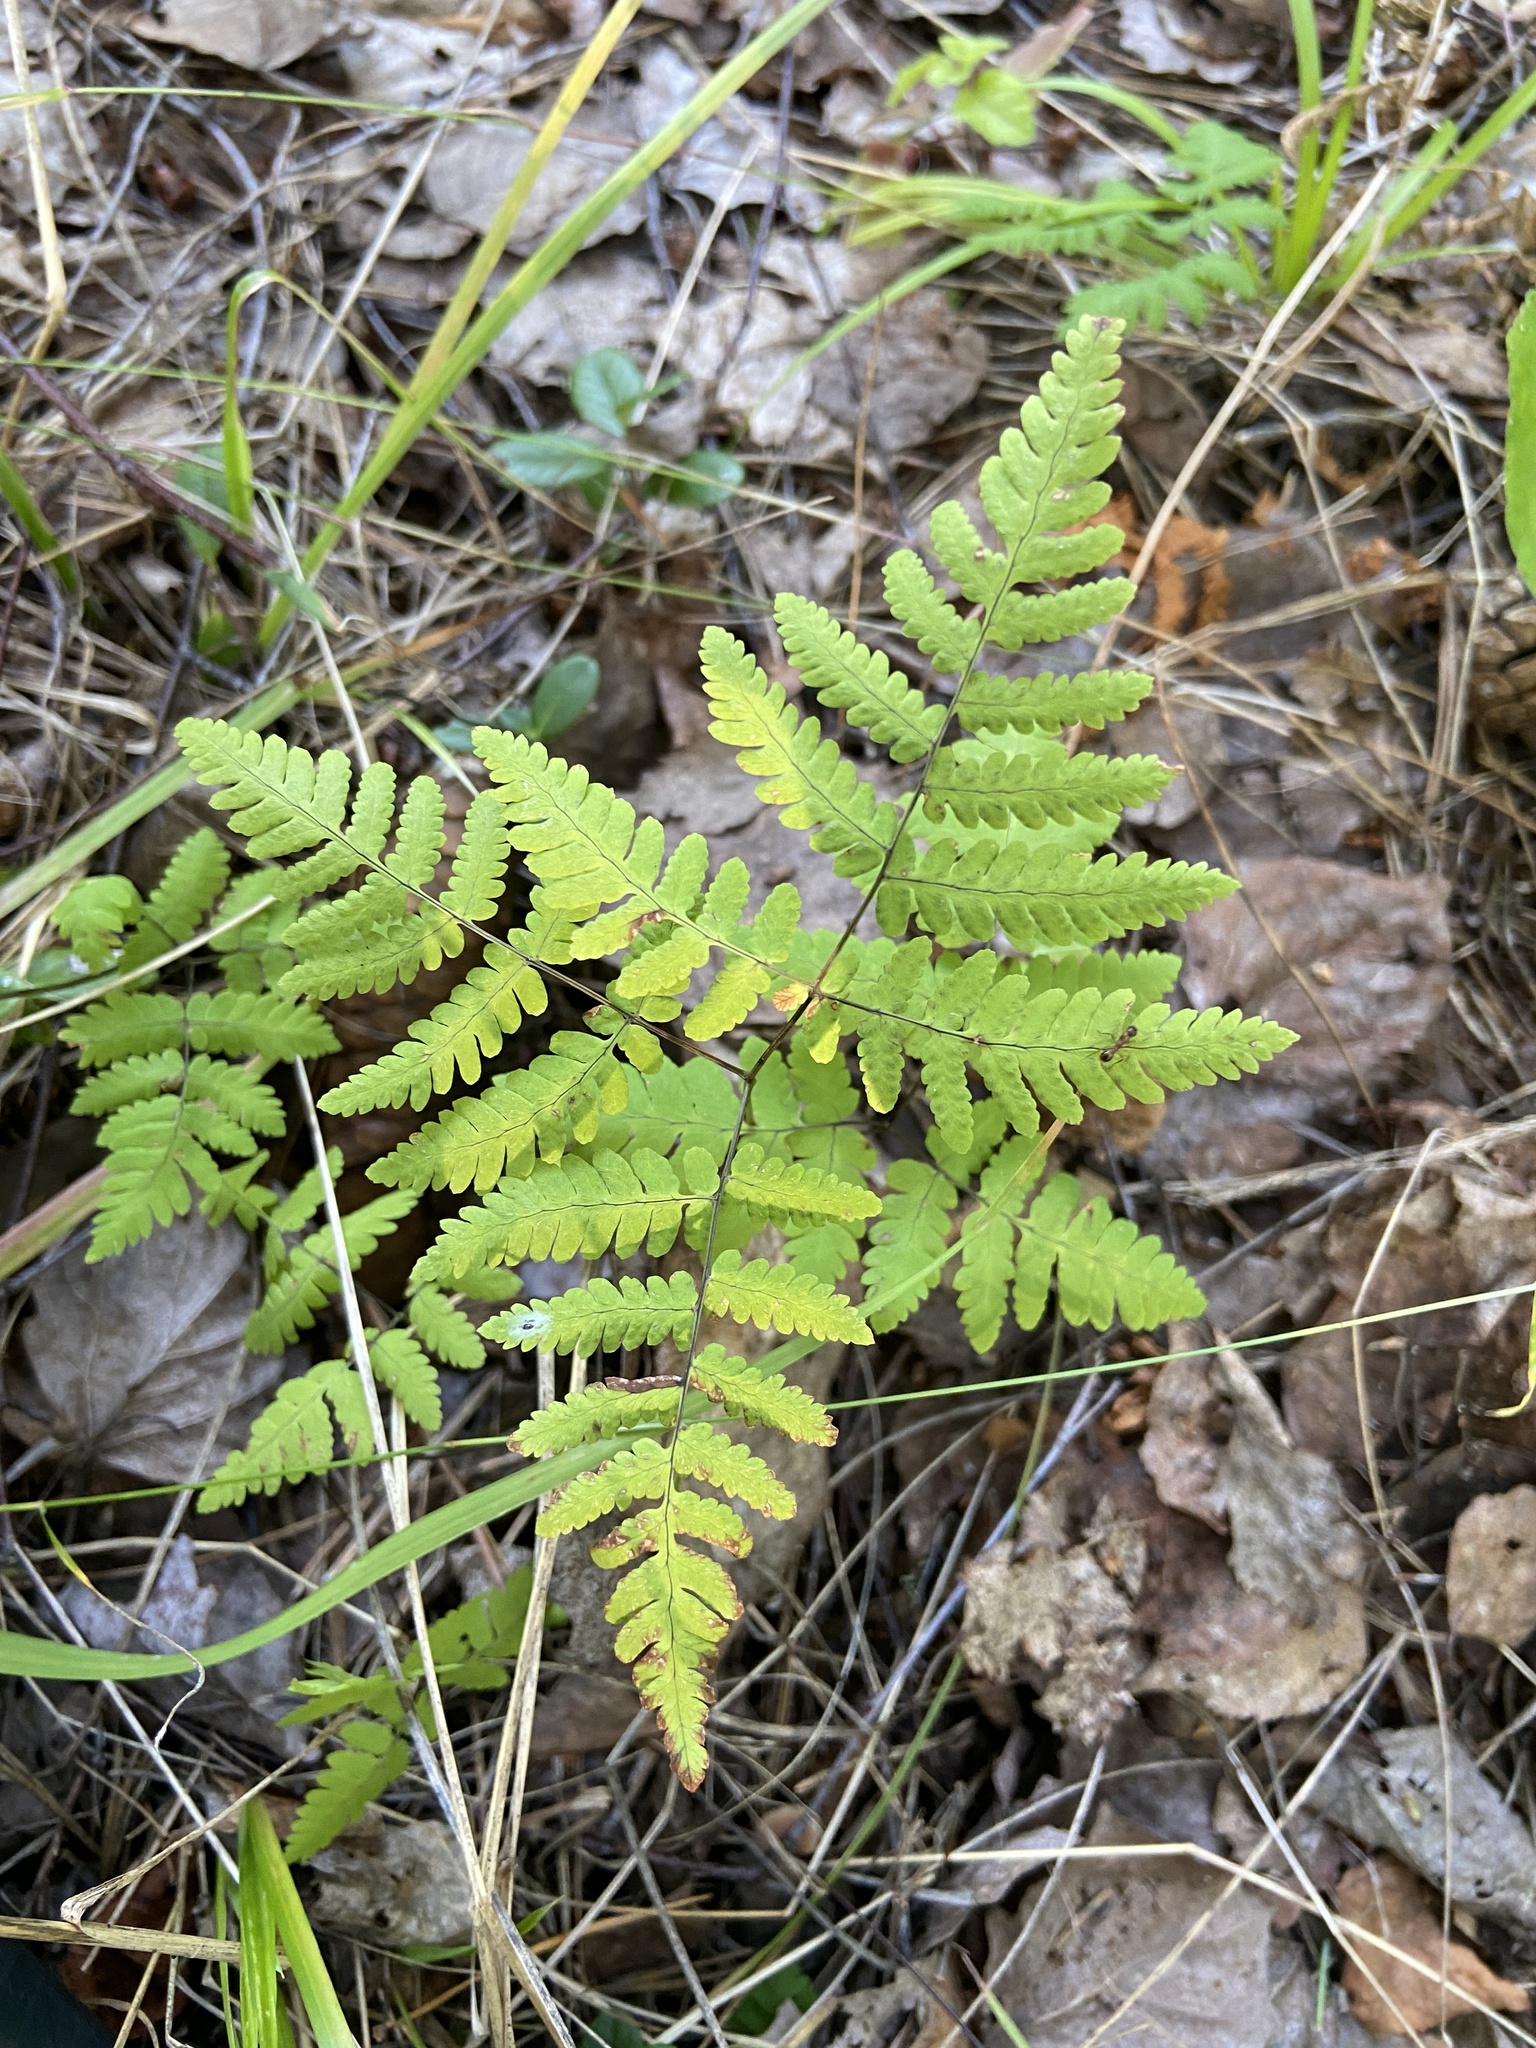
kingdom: Plantae
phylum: Tracheophyta
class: Polypodiopsida
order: Polypodiales
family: Cystopteridaceae
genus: Gymnocarpium
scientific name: Gymnocarpium dryopteris
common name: Oak fern
